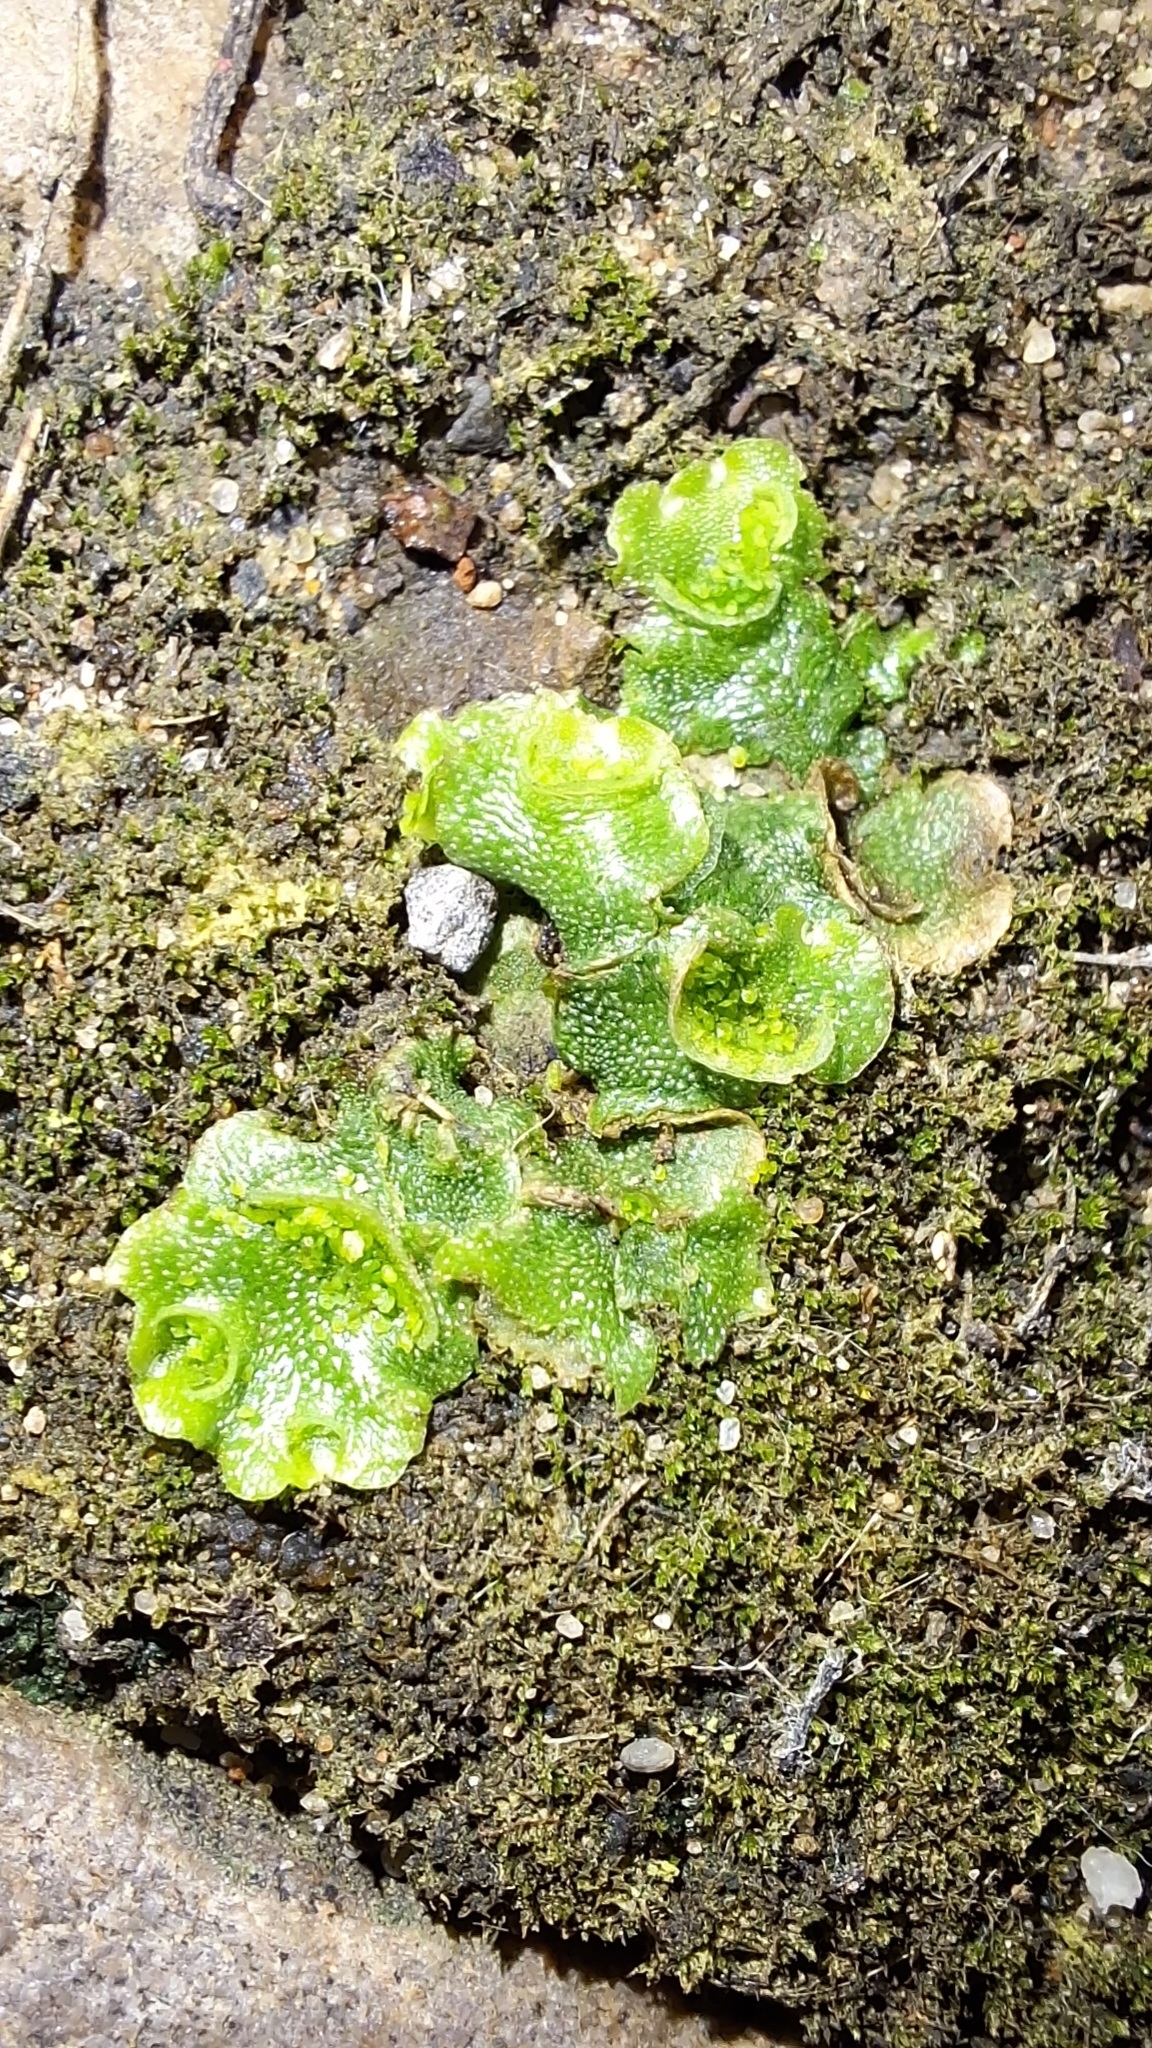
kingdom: Plantae
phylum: Marchantiophyta
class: Marchantiopsida
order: Lunulariales
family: Lunulariaceae
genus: Lunularia
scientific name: Lunularia cruciata
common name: Crescent-cup liverwort
